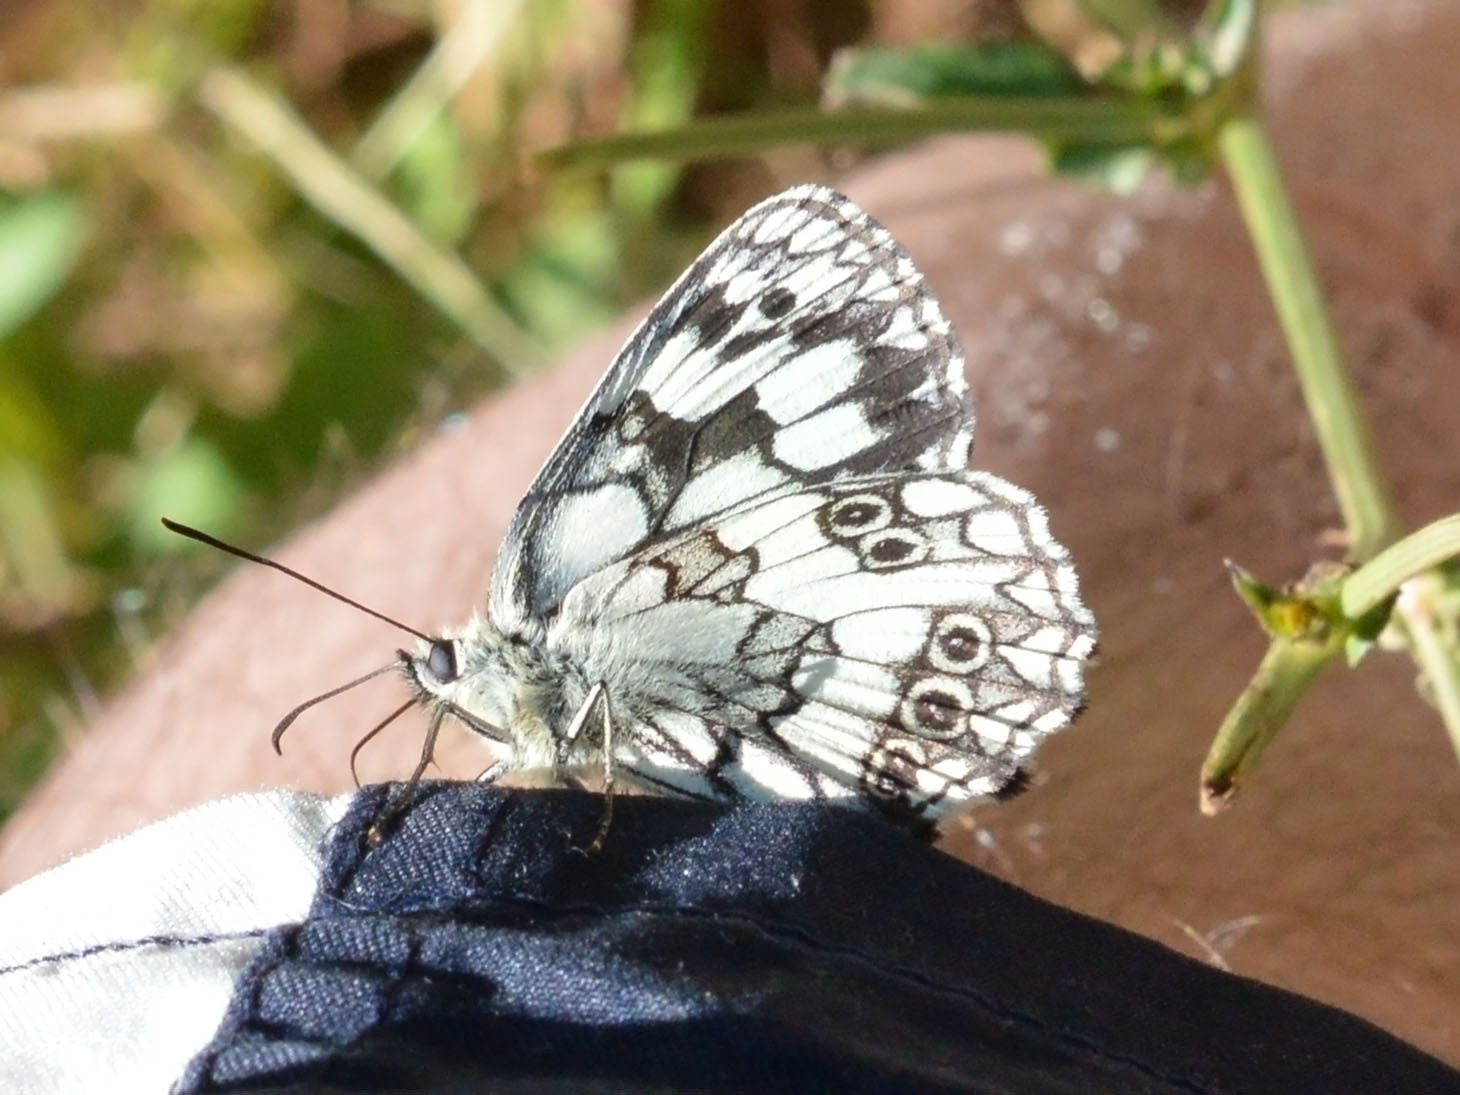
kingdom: Animalia
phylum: Arthropoda
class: Insecta
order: Lepidoptera
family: Nymphalidae
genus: Melanargia
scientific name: Melanargia galathea
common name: Marbled white
